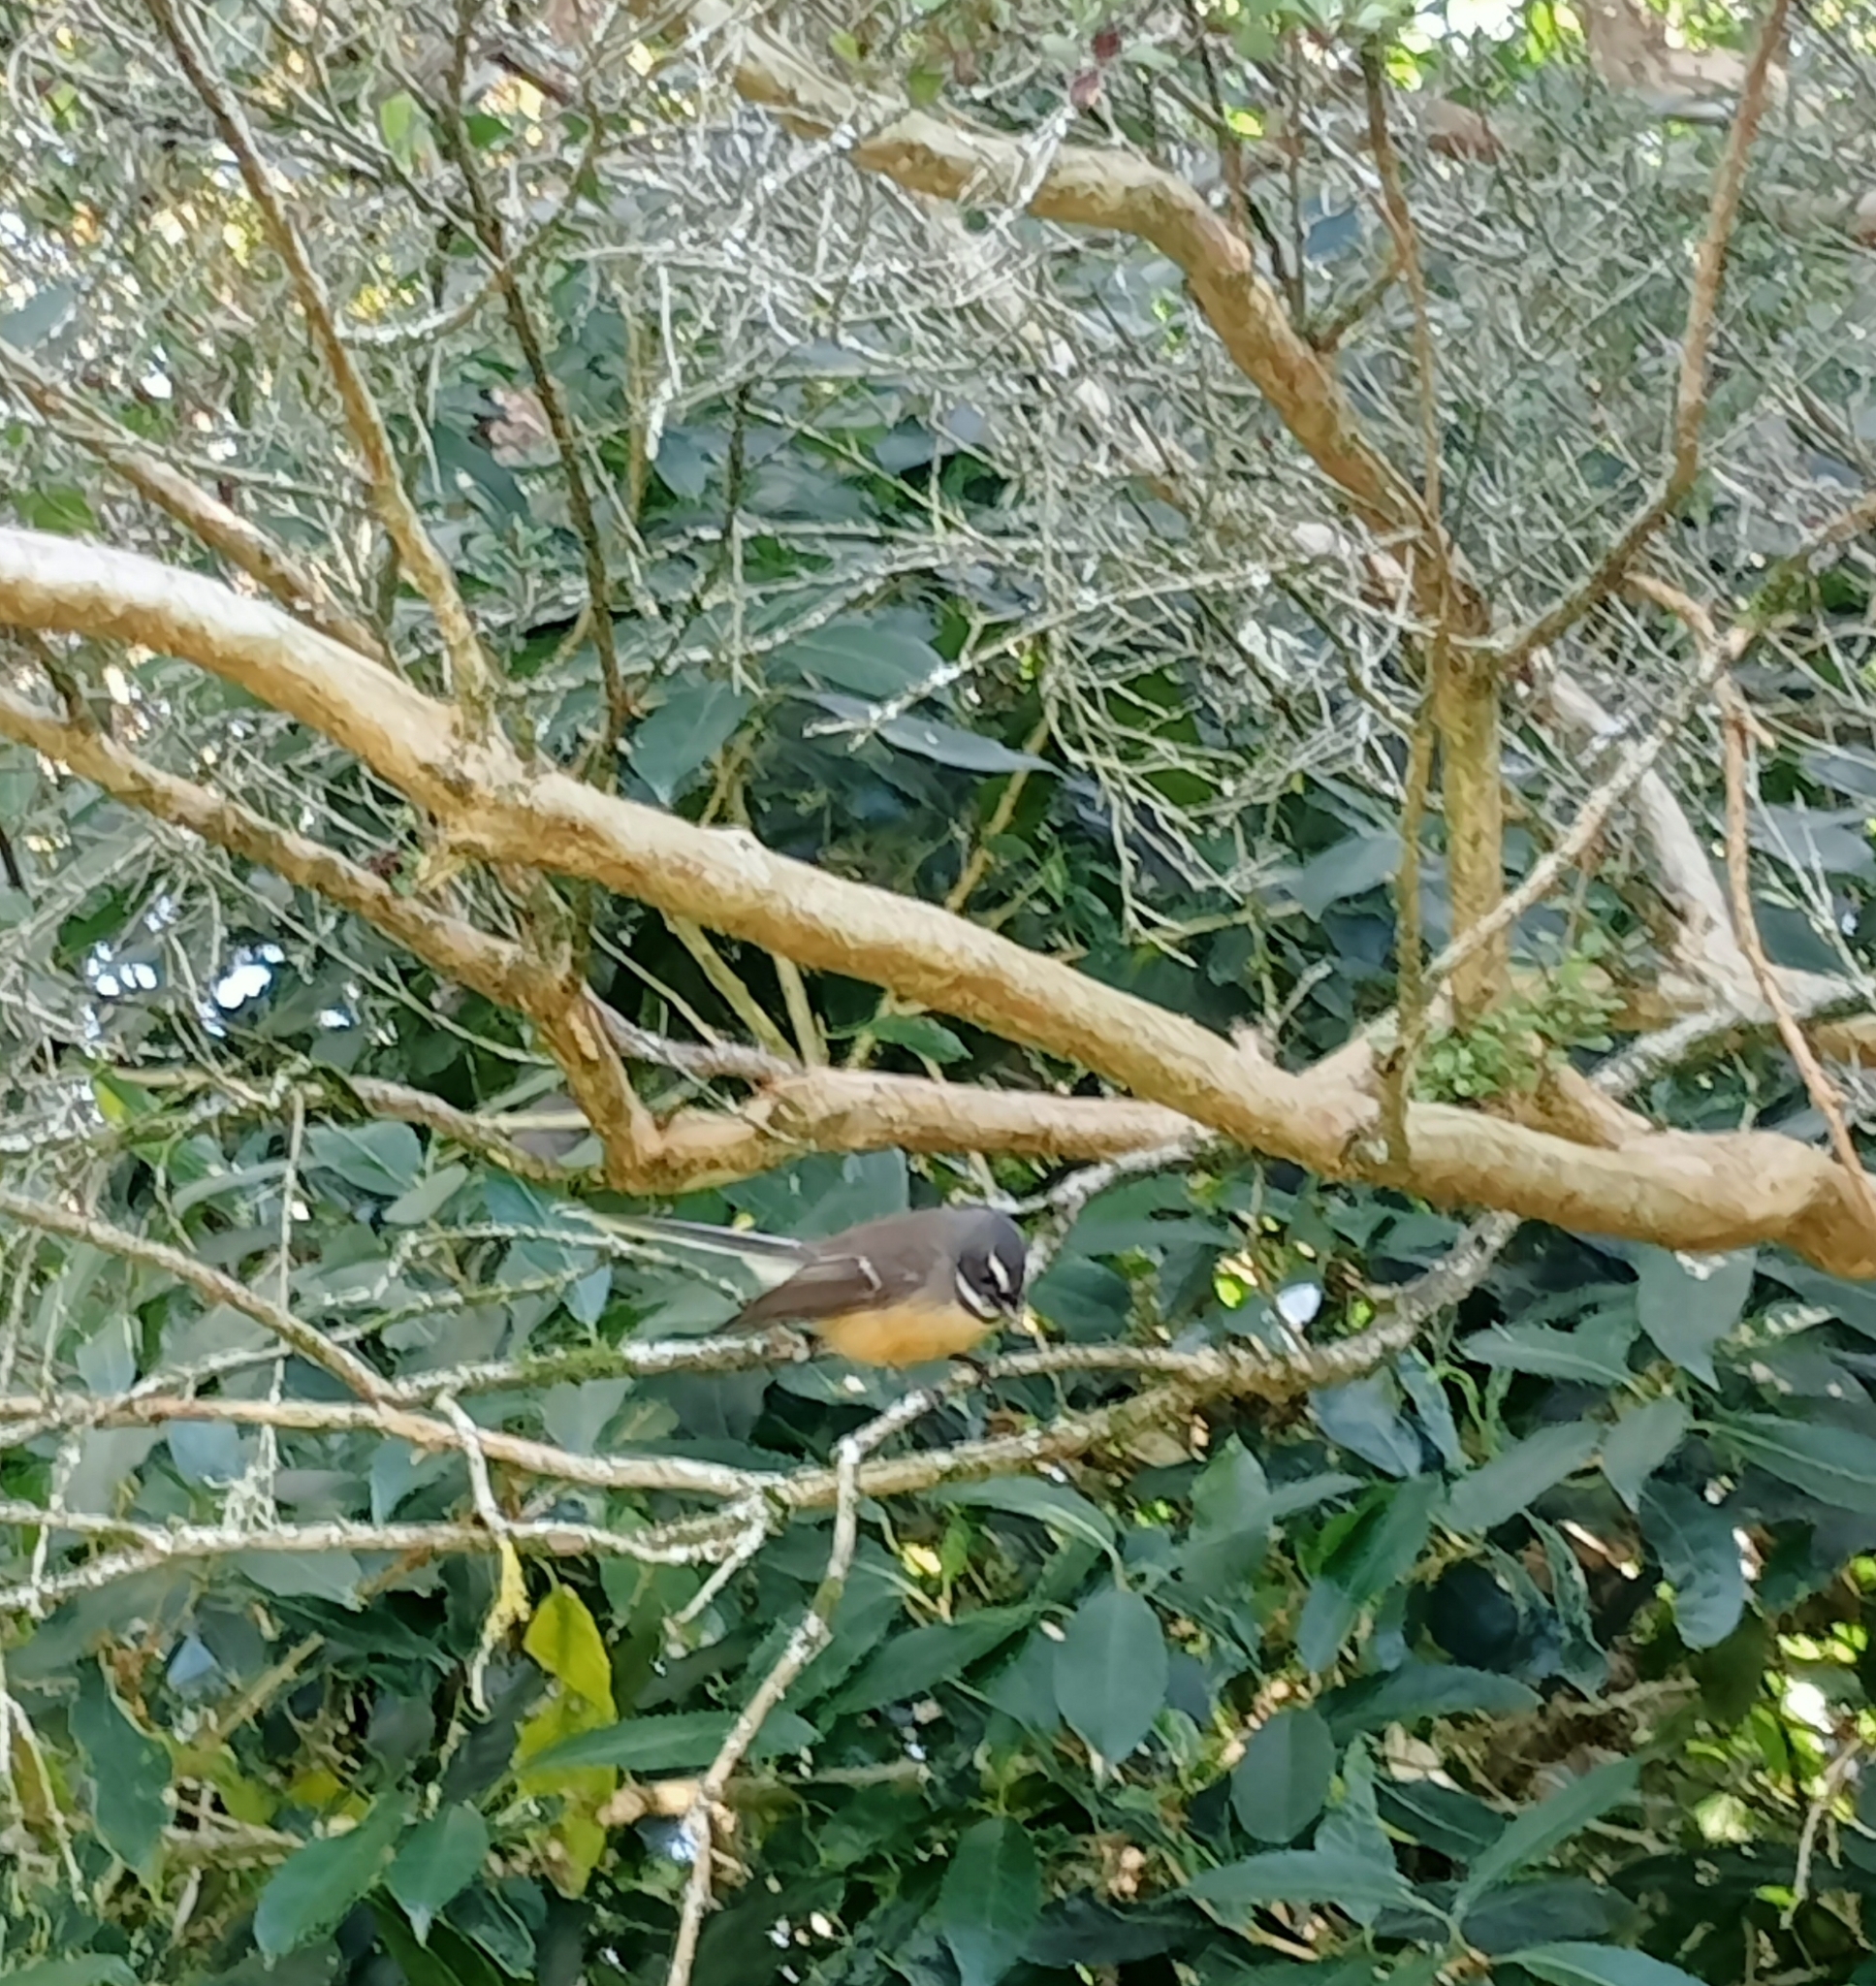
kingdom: Animalia
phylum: Chordata
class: Aves
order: Passeriformes
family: Rhipiduridae
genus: Rhipidura
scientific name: Rhipidura fuliginosa
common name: New zealand fantail
